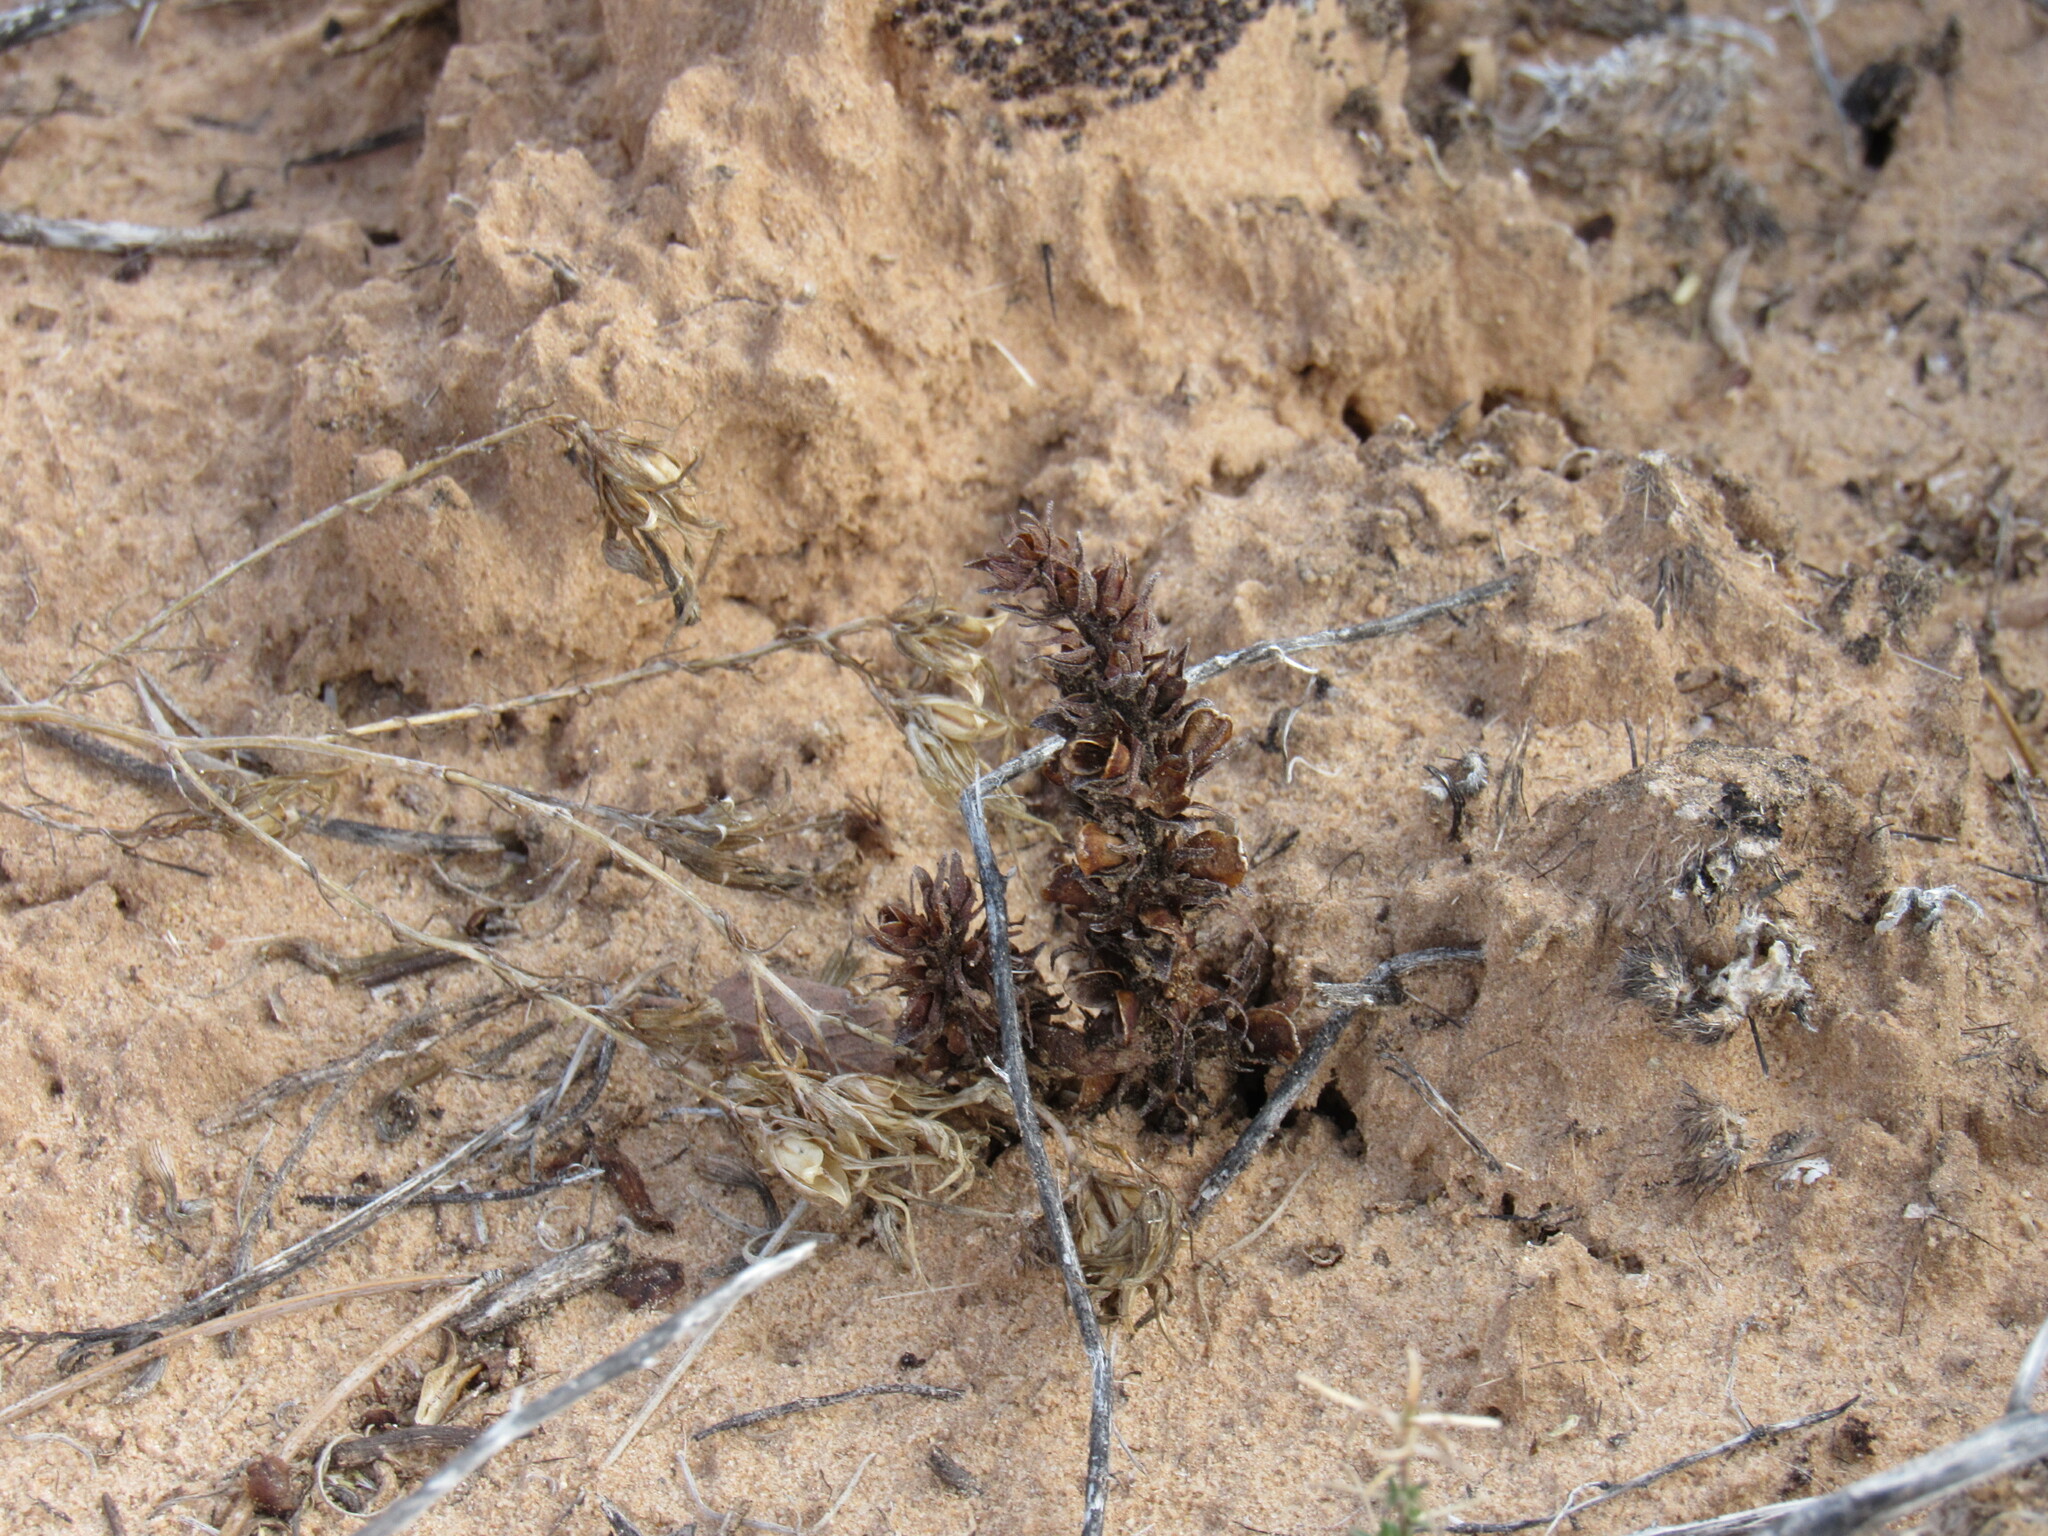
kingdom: Plantae
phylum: Tracheophyta
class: Magnoliopsida
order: Lamiales
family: Orobanchaceae
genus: Aphyllon
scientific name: Aphyllon arizonicum
